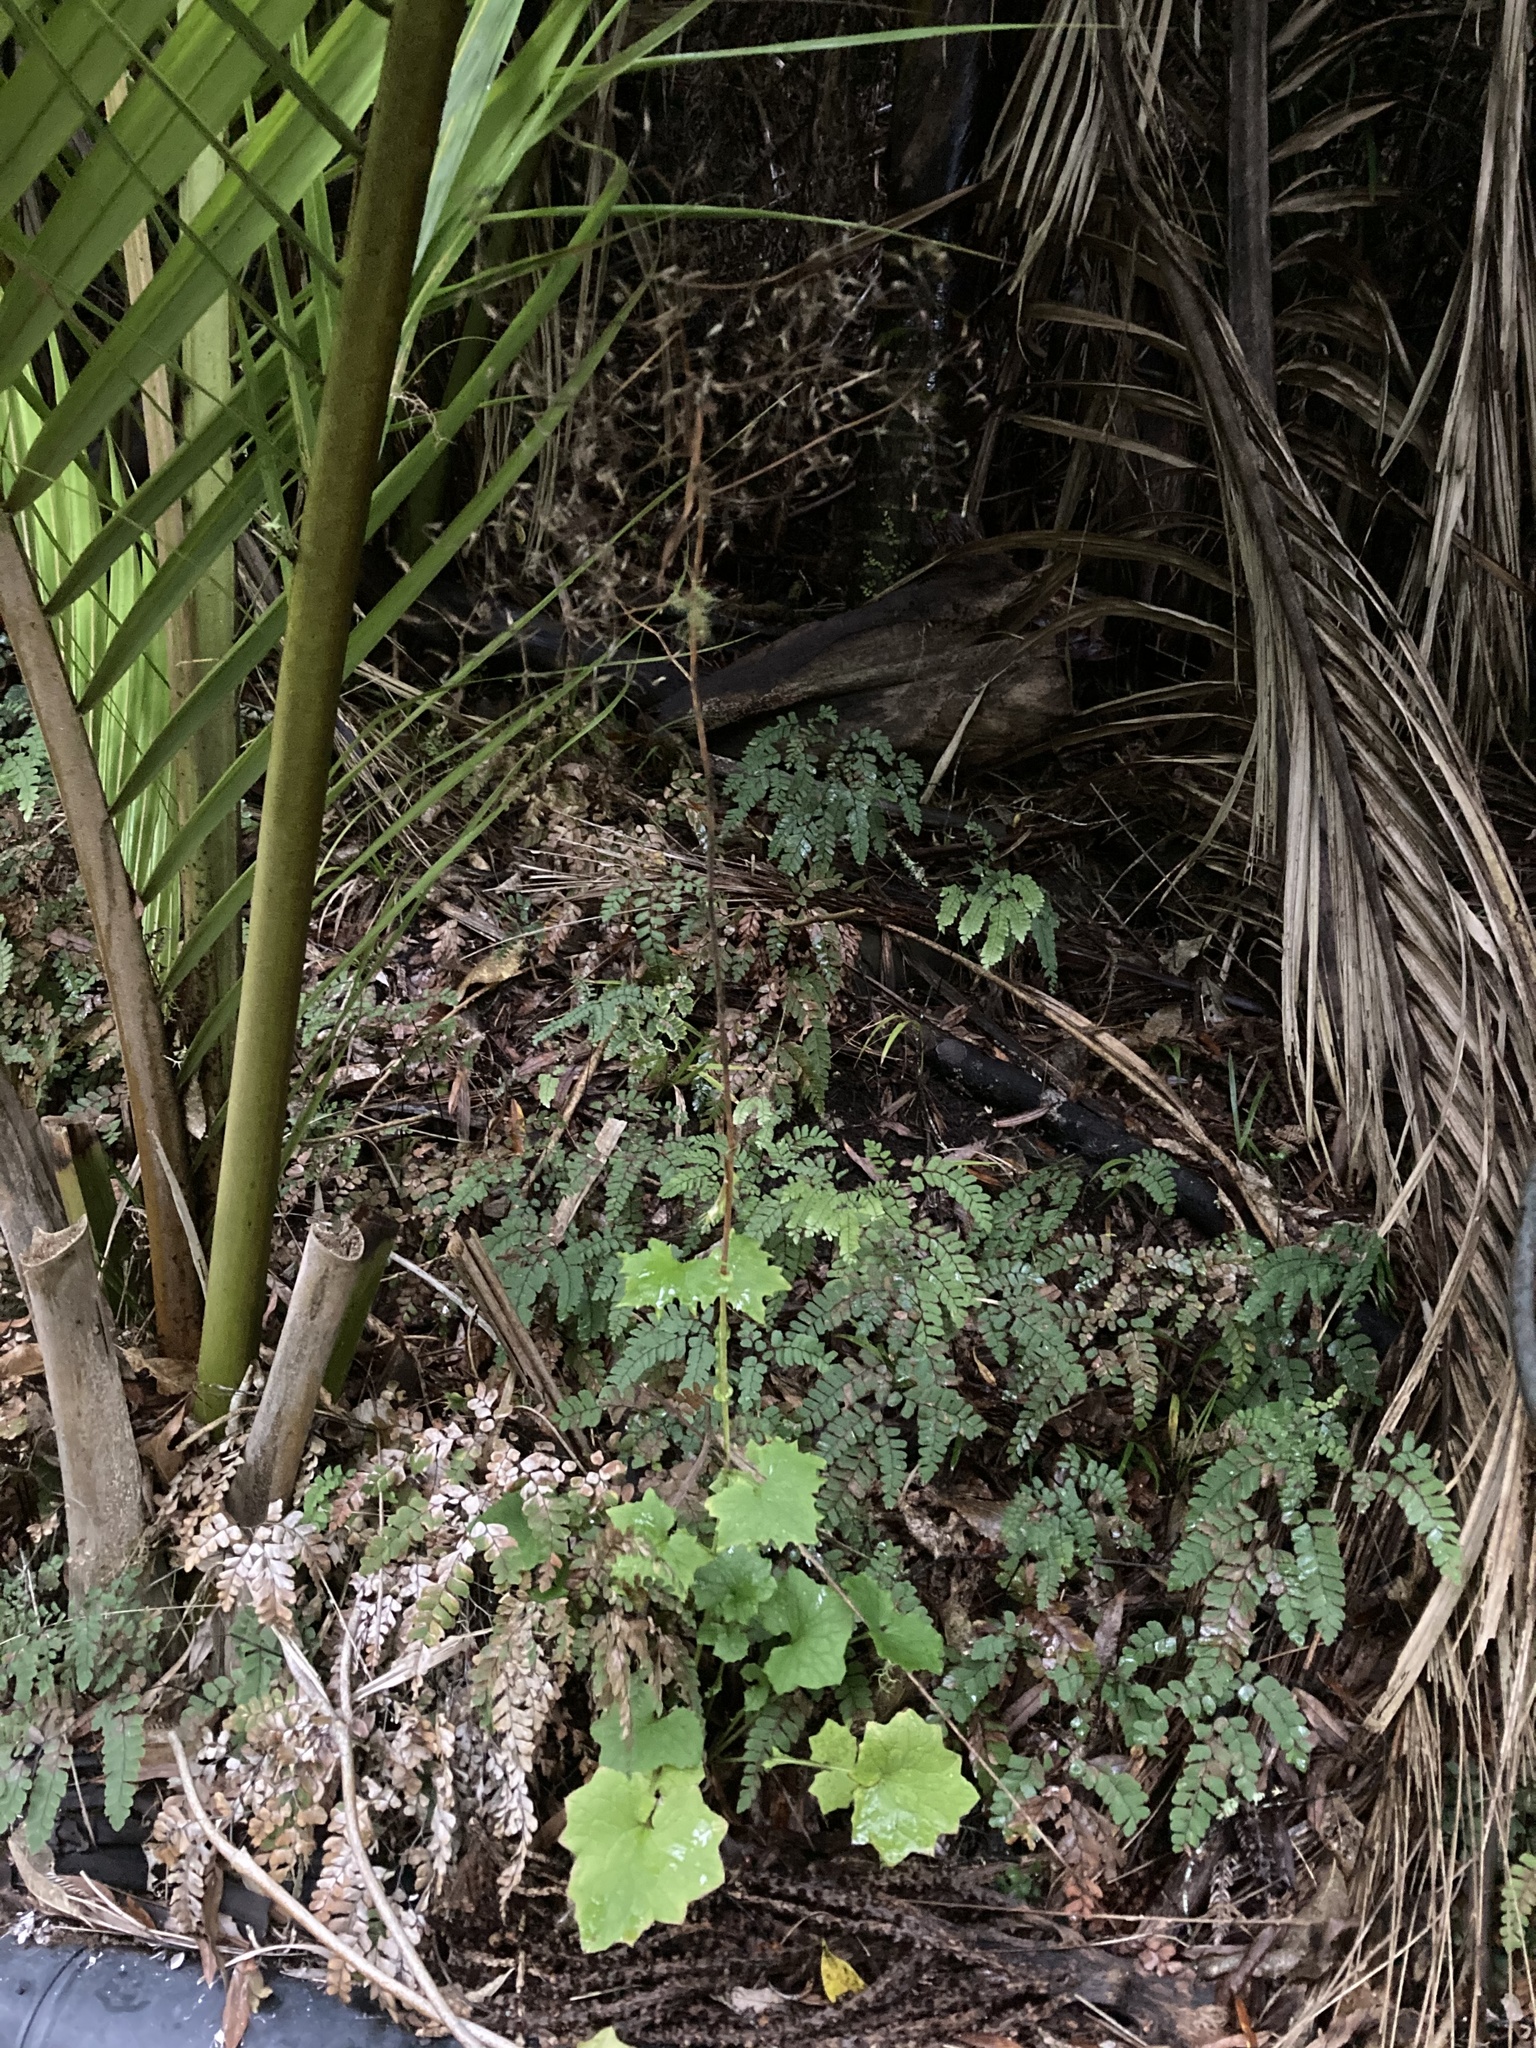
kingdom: Plantae
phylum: Tracheophyta
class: Magnoliopsida
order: Asterales
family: Asteraceae
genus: Mycelis
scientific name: Mycelis muralis
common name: Wall lettuce
